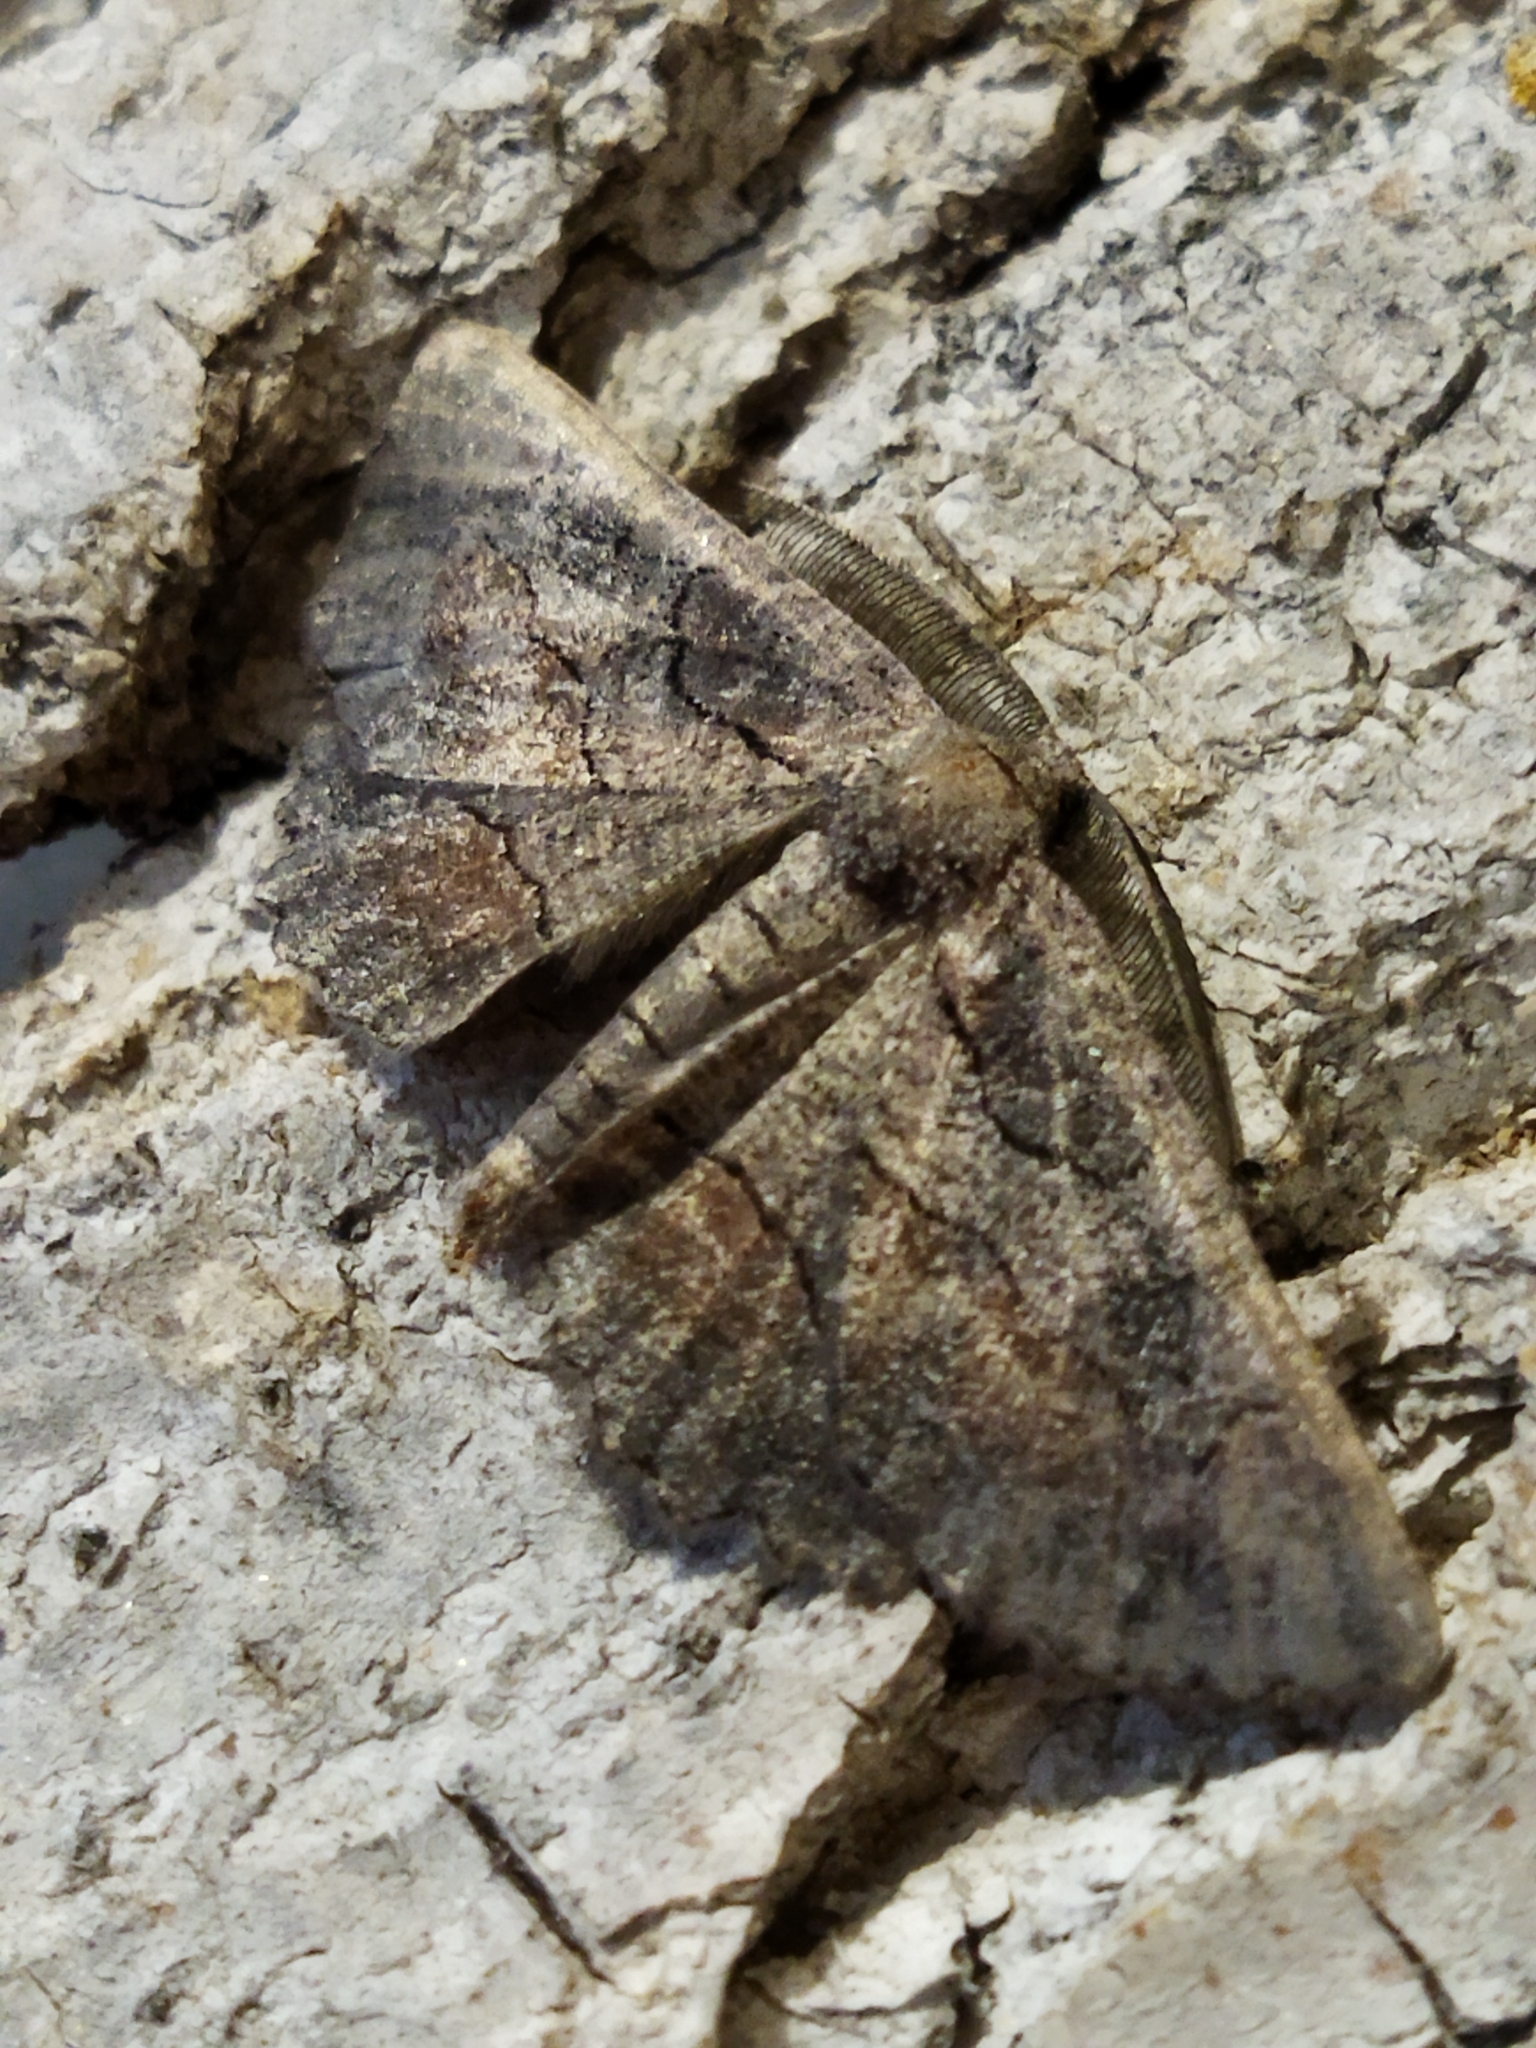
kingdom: Animalia
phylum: Arthropoda
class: Insecta
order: Lepidoptera
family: Geometridae
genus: Nychiodes
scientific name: Nychiodes waltheri
